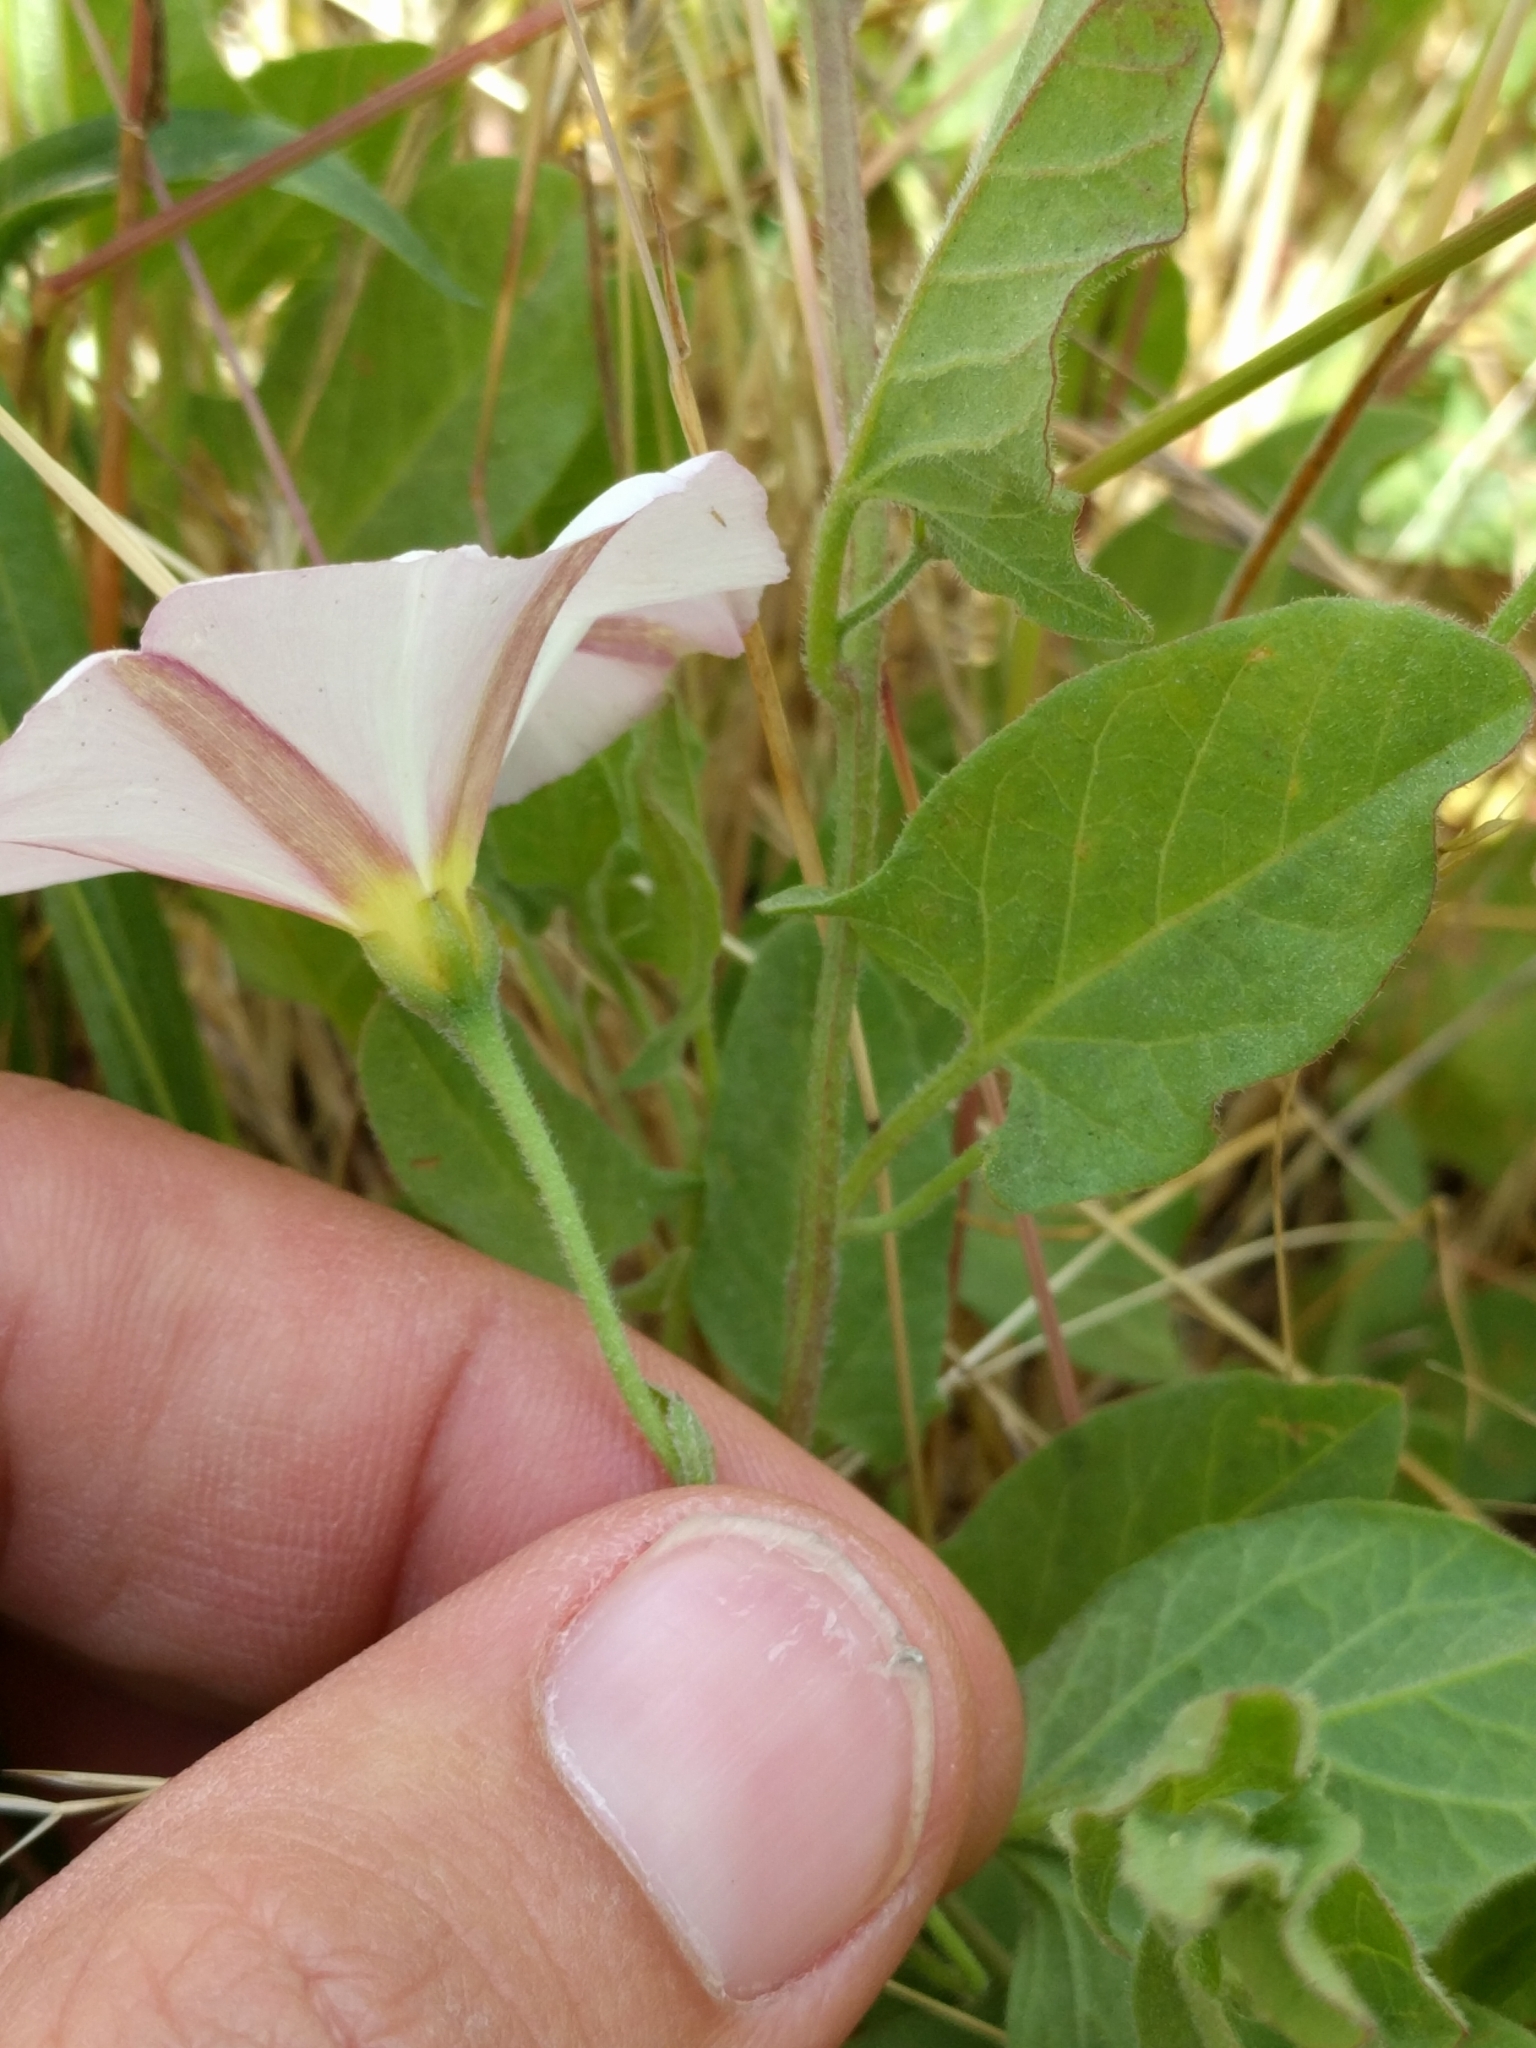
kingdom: Plantae
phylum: Tracheophyta
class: Magnoliopsida
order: Solanales
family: Convolvulaceae
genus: Convolvulus
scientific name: Convolvulus arvensis
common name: Field bindweed
